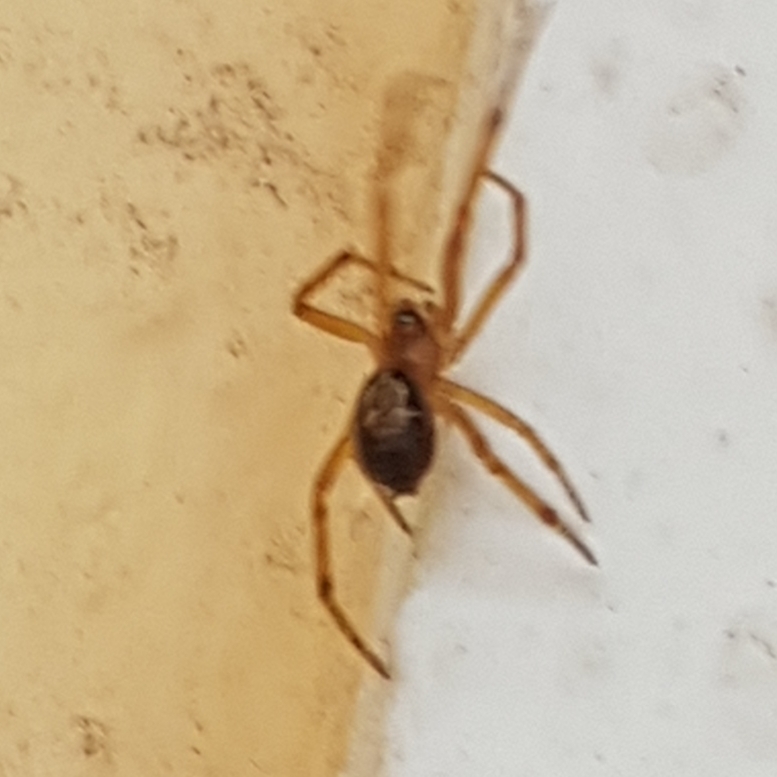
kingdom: Animalia
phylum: Arthropoda
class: Arachnida
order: Araneae
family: Theridiidae
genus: Steatoda
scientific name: Steatoda nobilis
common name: Cobweb weaver
